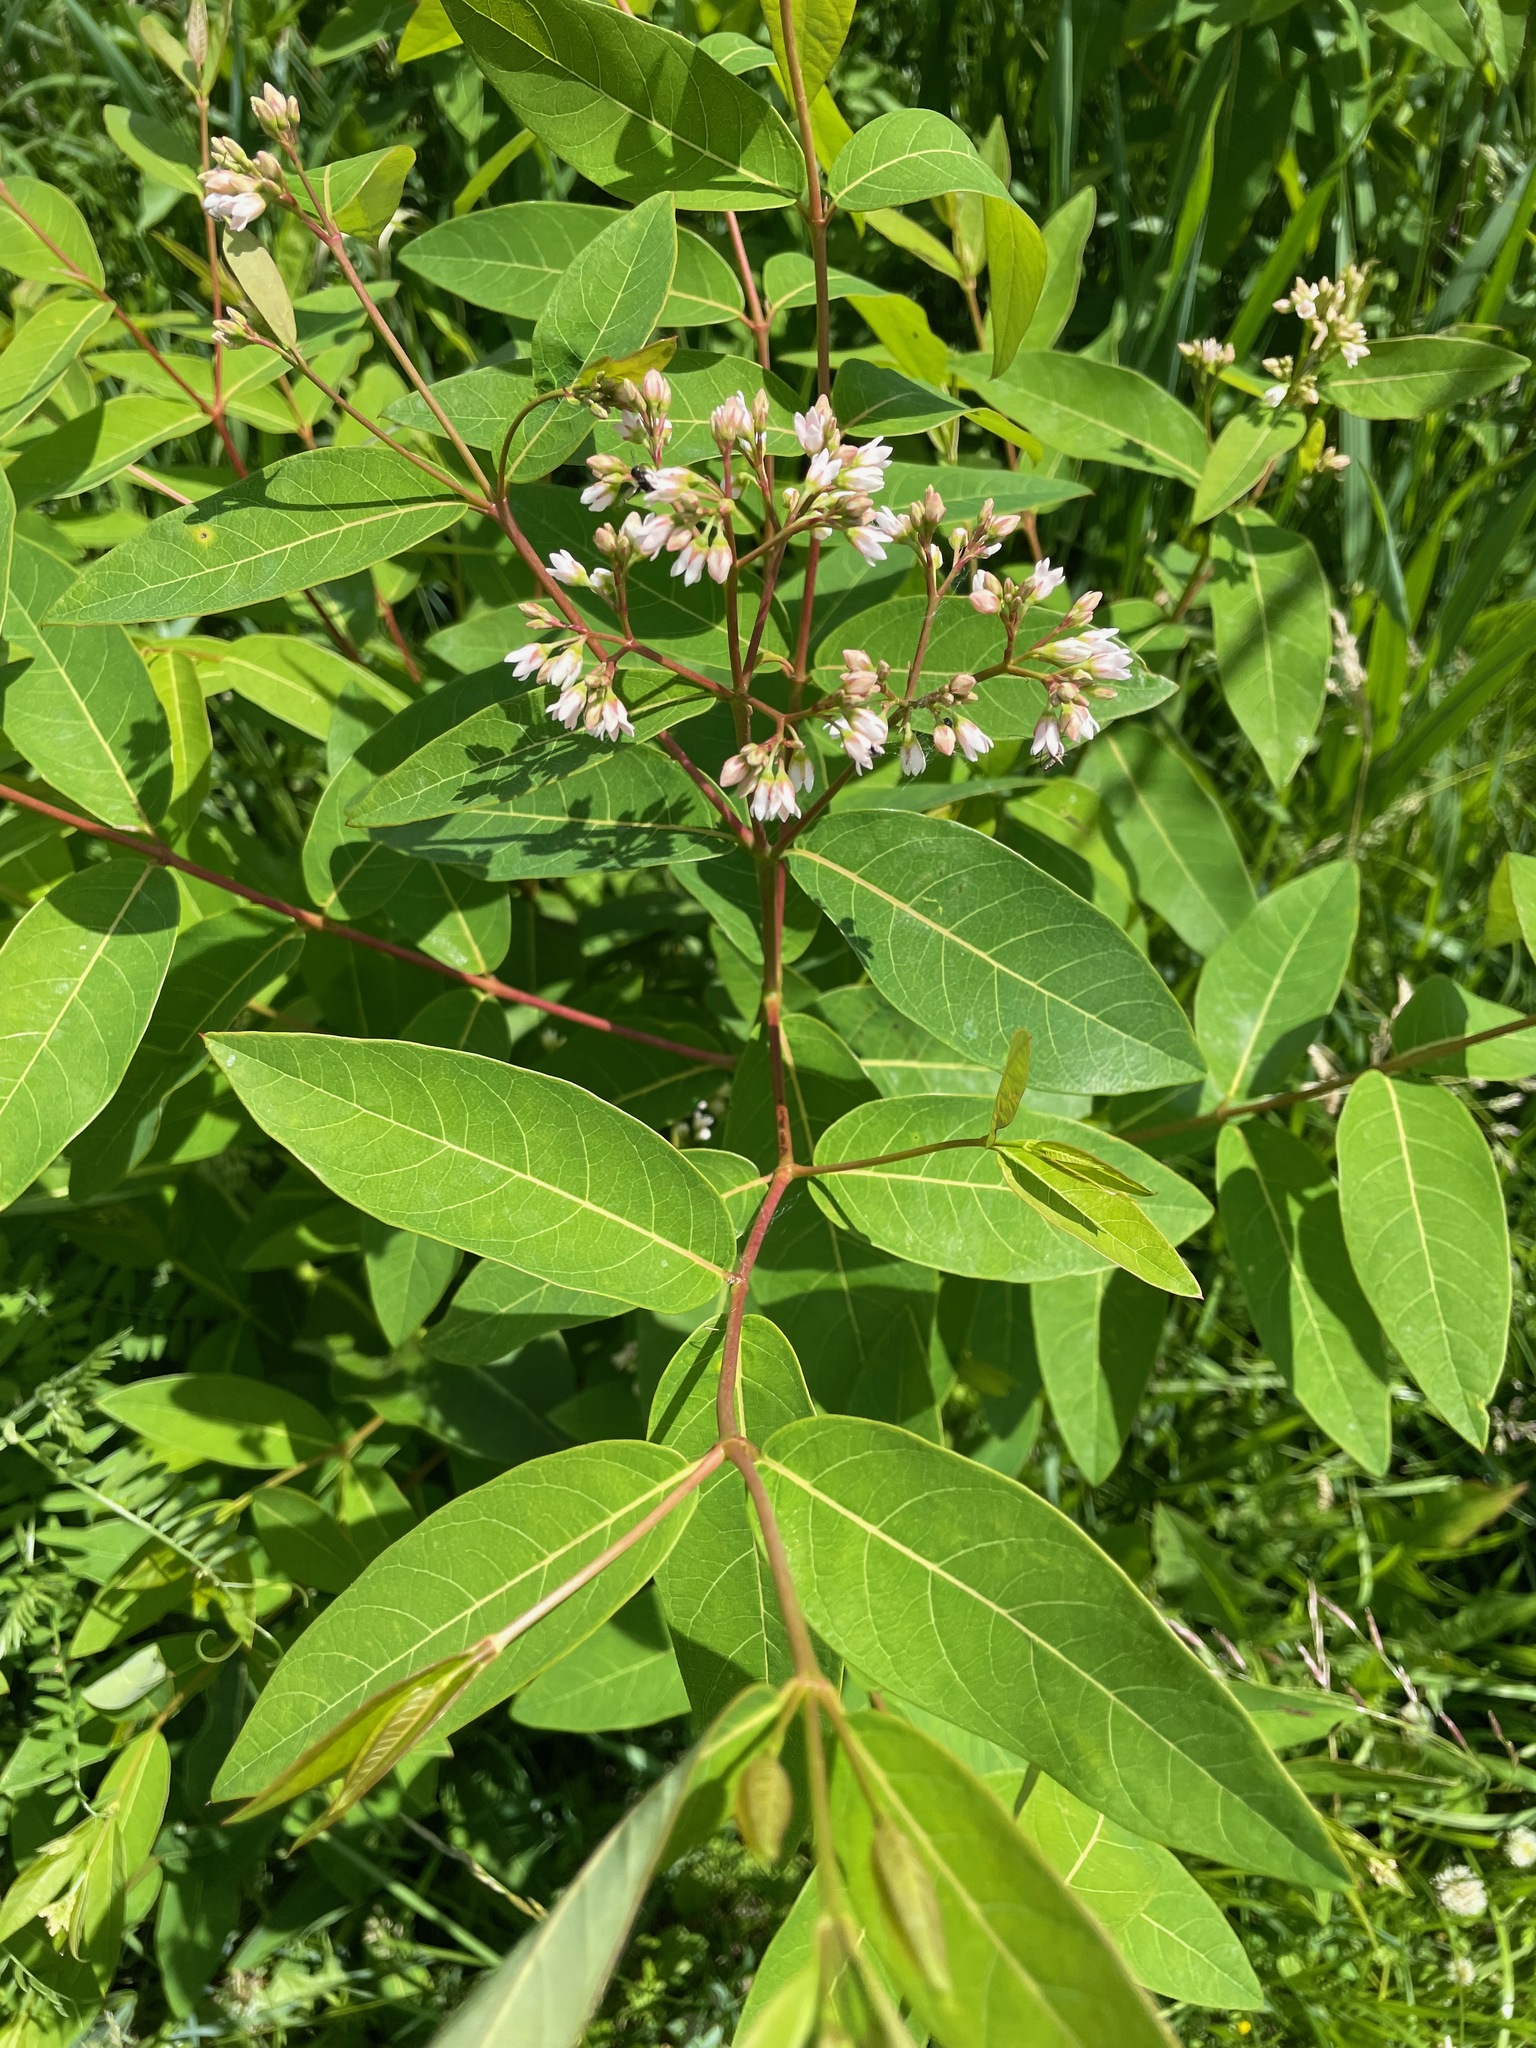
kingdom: Plantae
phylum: Tracheophyta
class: Magnoliopsida
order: Gentianales
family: Apocynaceae
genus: Apocynum
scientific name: Apocynum androsaemifolium
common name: Spreading dogbane
